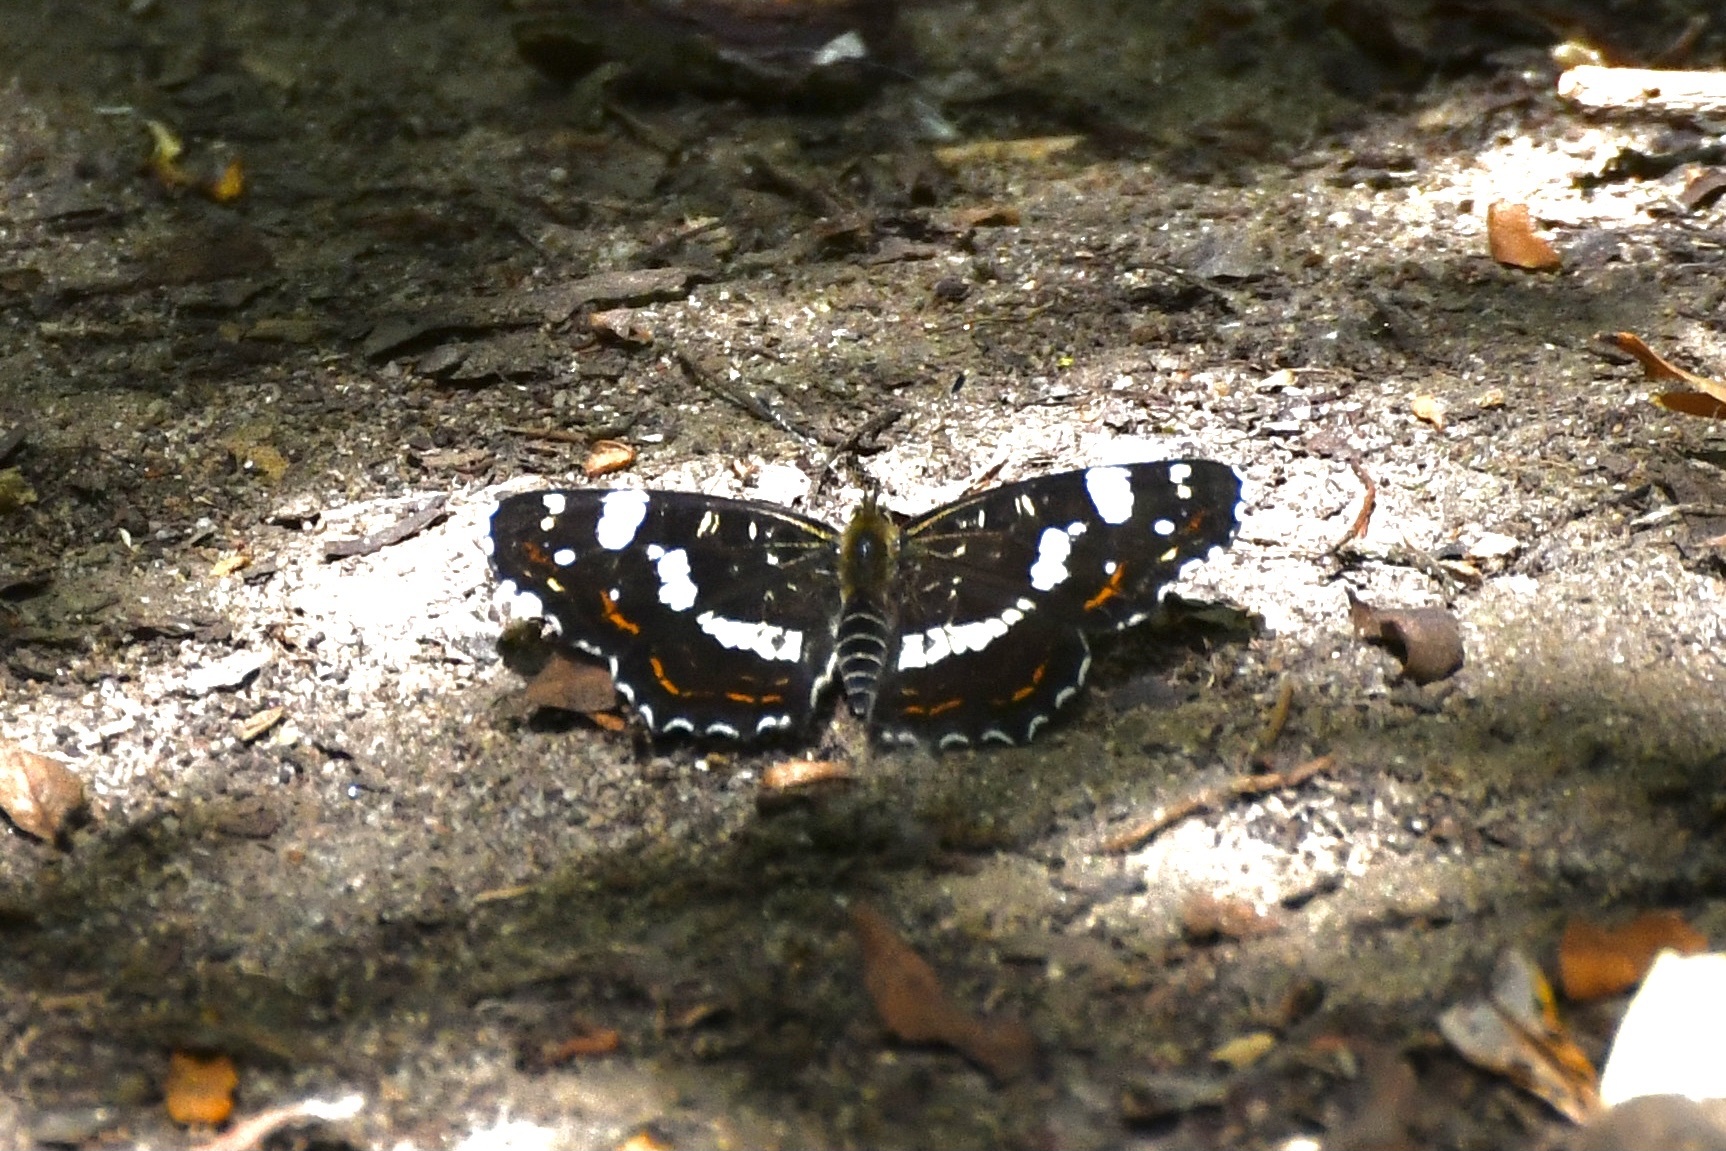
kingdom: Animalia
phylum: Arthropoda
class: Insecta
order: Lepidoptera
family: Nymphalidae
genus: Araschnia
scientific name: Araschnia levana
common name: Map butterfly
